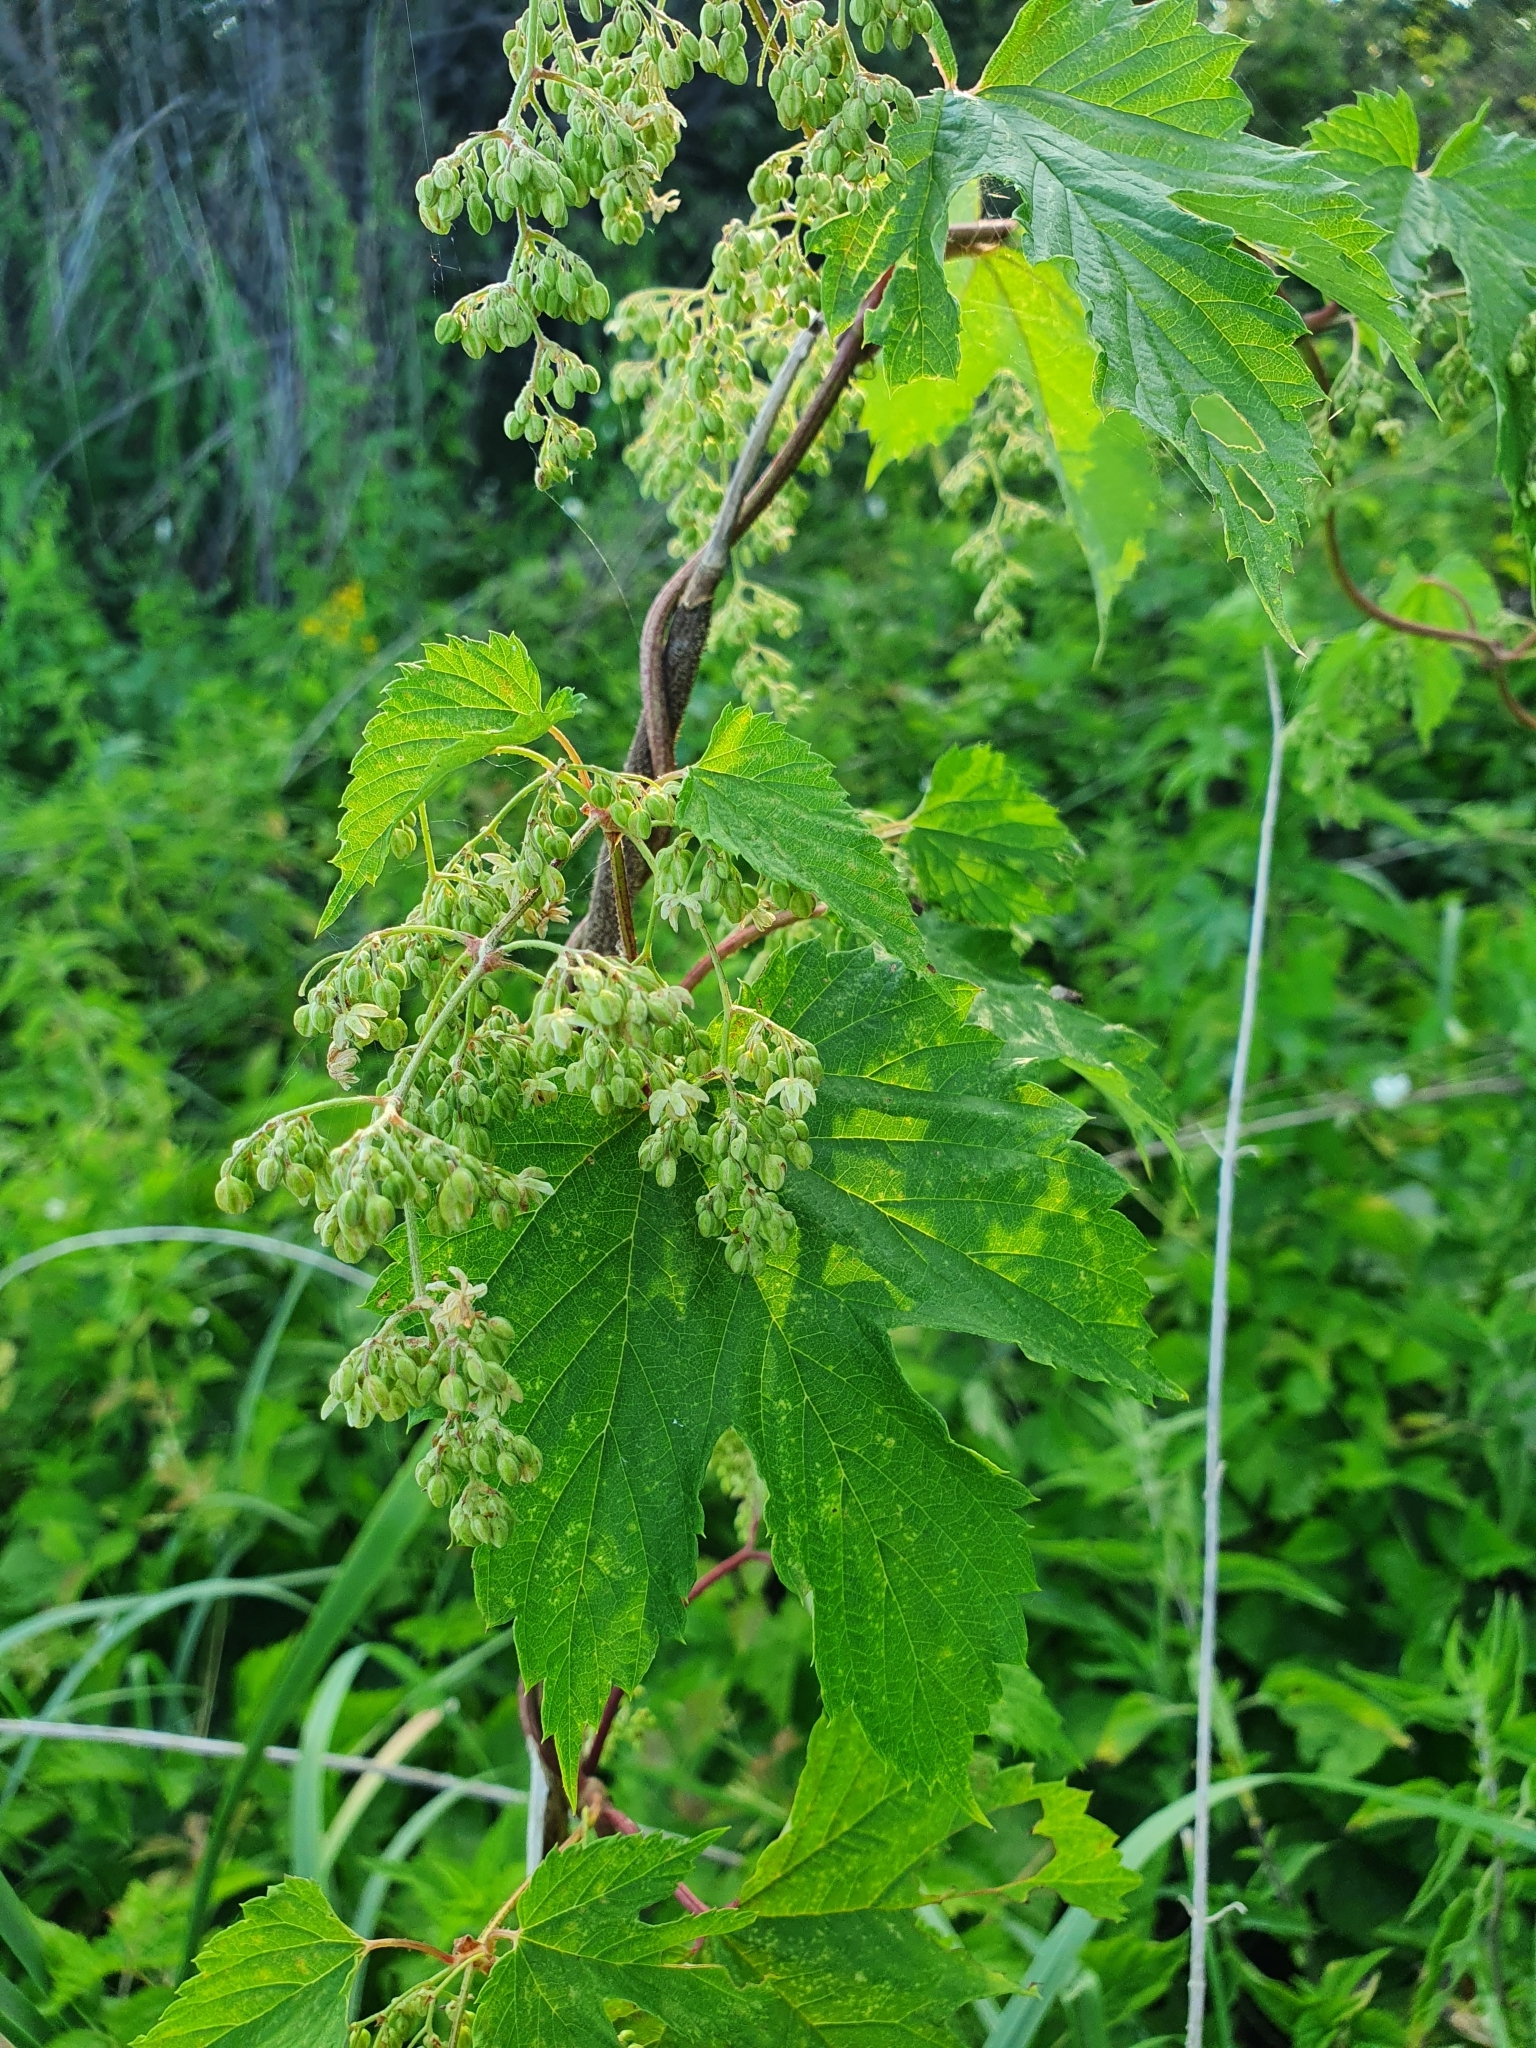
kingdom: Plantae
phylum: Tracheophyta
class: Magnoliopsida
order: Rosales
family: Cannabaceae
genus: Humulus
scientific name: Humulus lupulus
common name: Hop
